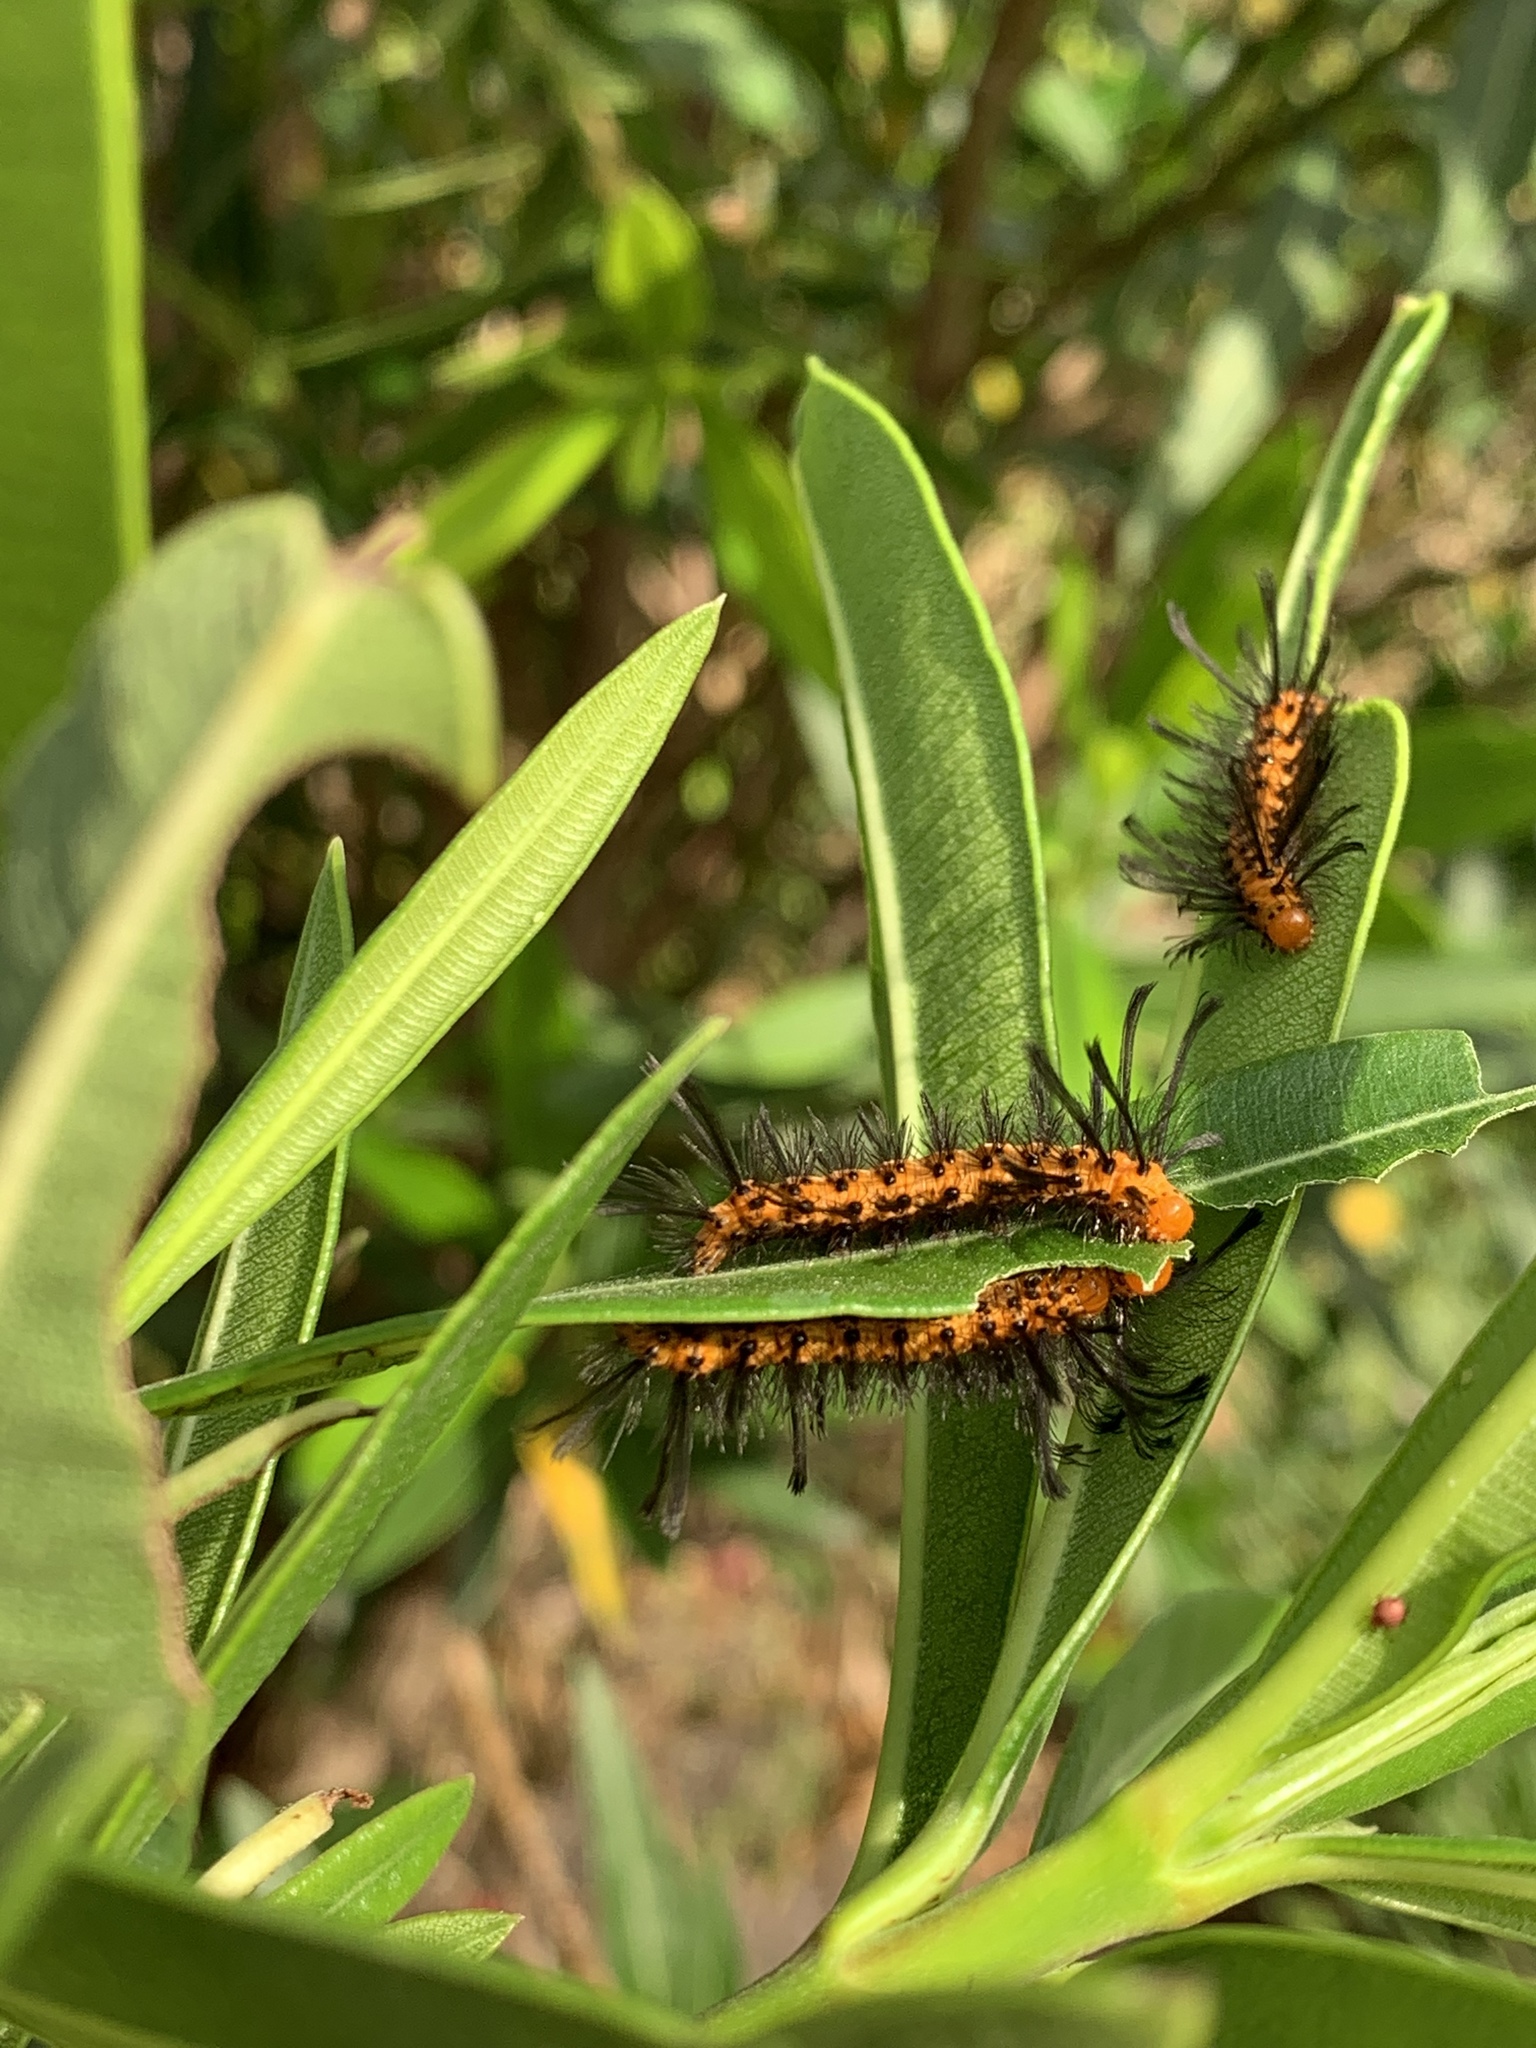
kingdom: Animalia
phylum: Arthropoda
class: Insecta
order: Lepidoptera
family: Erebidae
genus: Syntomeida
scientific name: Syntomeida epilais
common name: Polka-dot wasp moth
